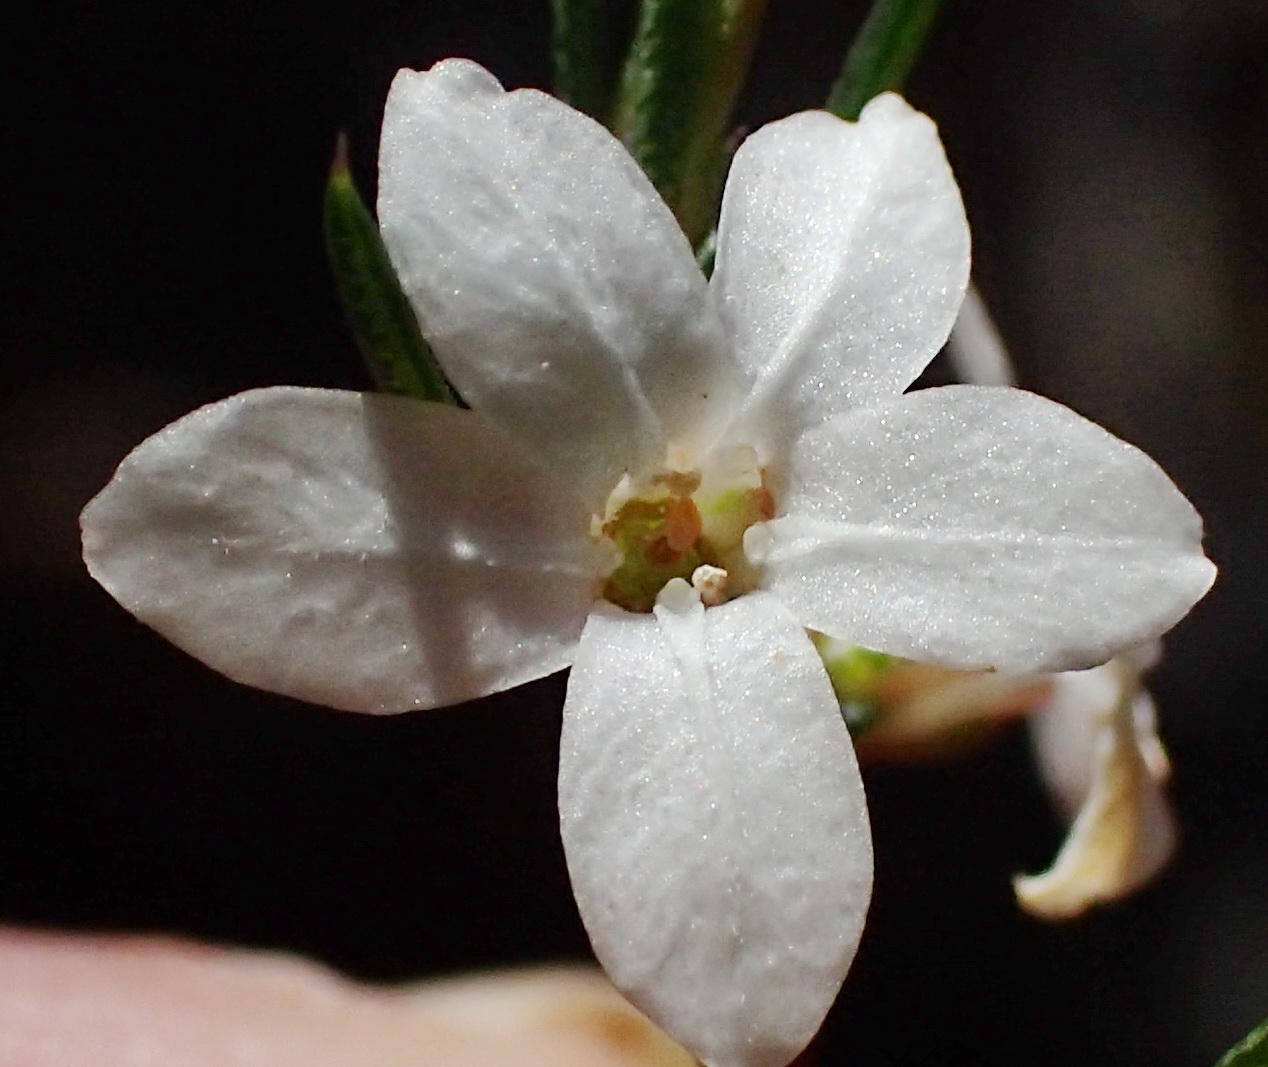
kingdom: Plantae
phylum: Tracheophyta
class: Magnoliopsida
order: Sapindales
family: Rutaceae
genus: Coleonema
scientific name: Coleonema virgatum
